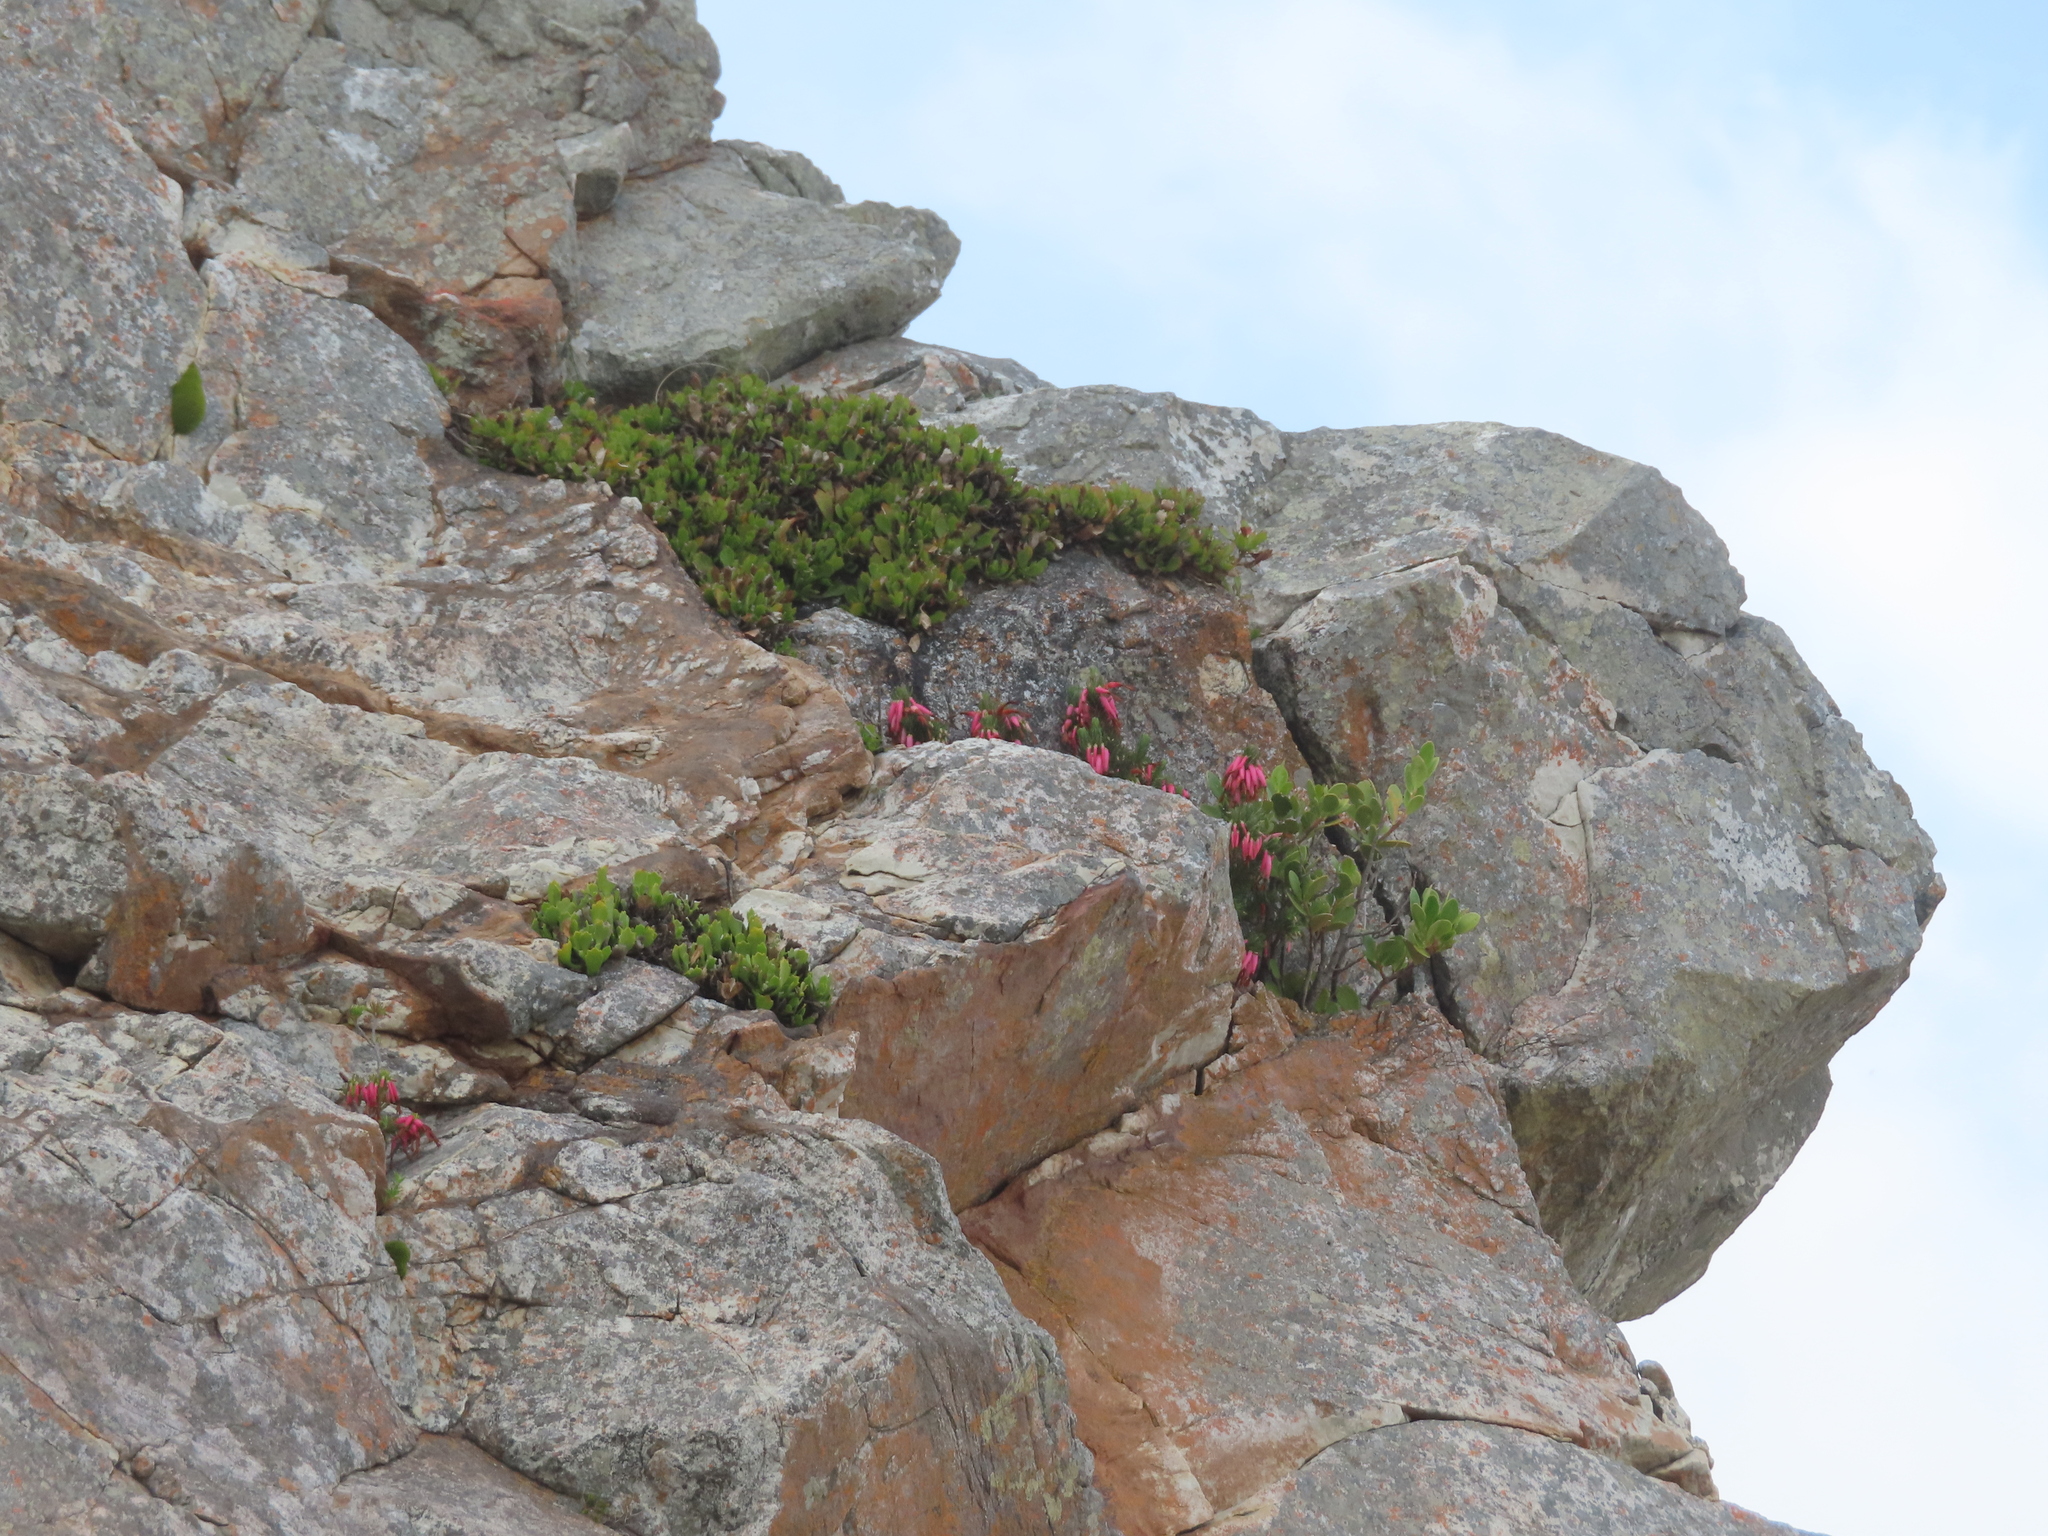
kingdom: Plantae
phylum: Tracheophyta
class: Magnoliopsida
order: Ericales
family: Ericaceae
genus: Erica
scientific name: Erica plukenetii
